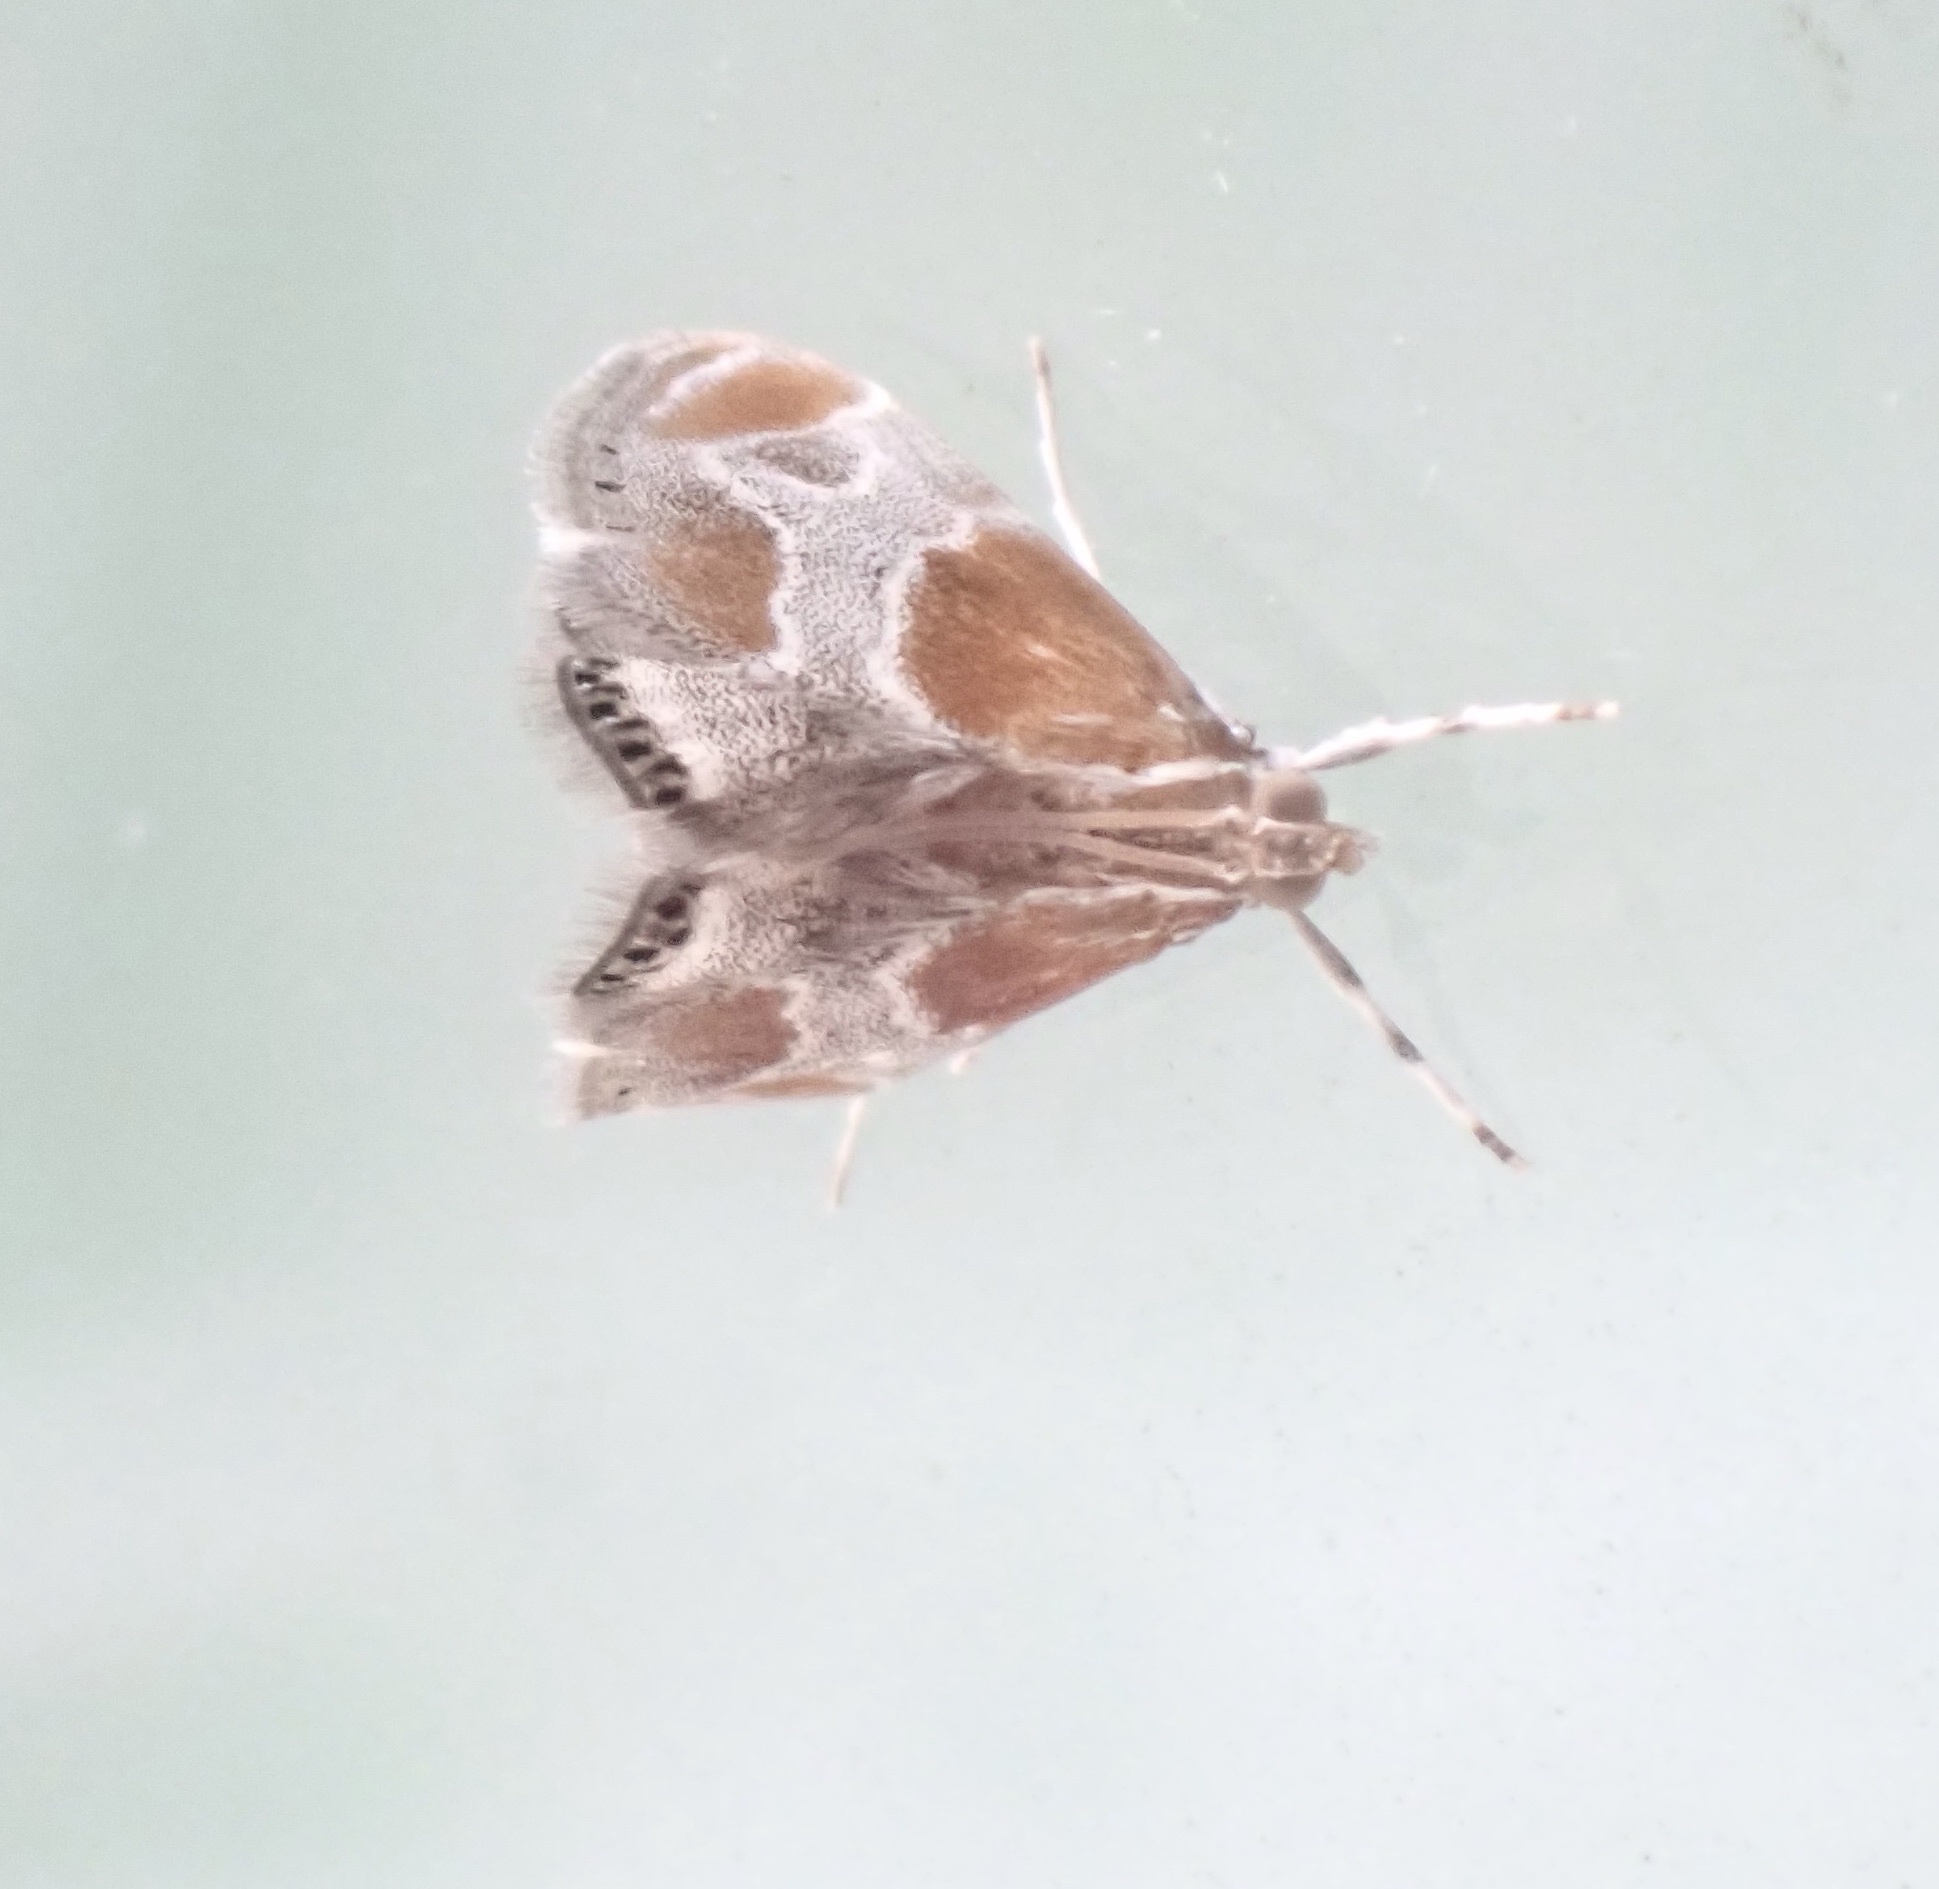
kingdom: Animalia
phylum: Arthropoda
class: Insecta
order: Lepidoptera
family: Crambidae
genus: Chalcoela
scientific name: Chalcoela pegasalis
